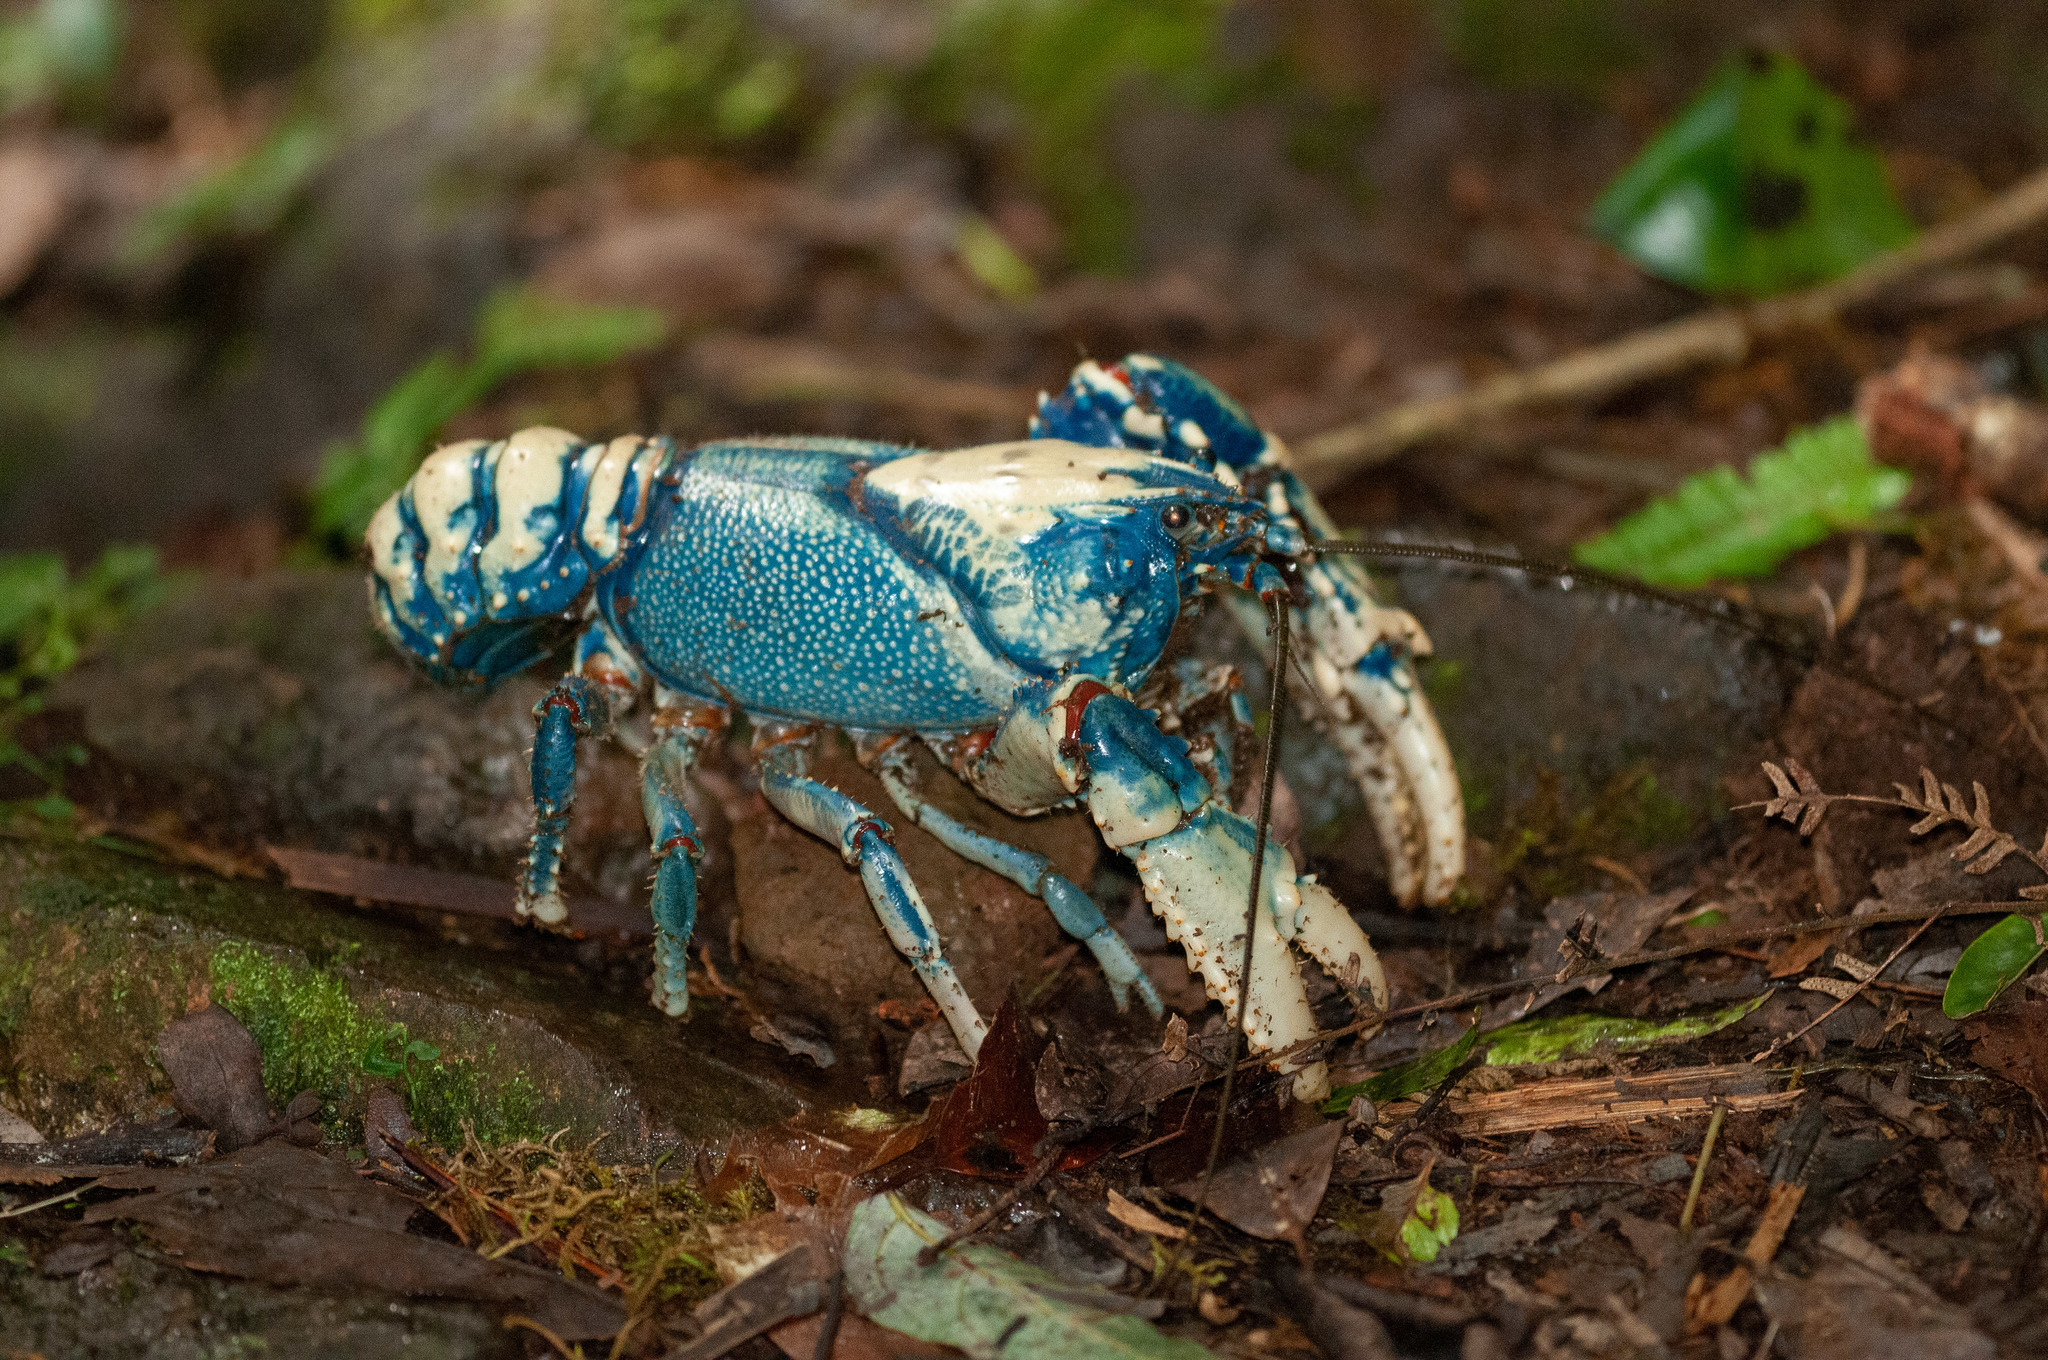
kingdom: Animalia
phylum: Arthropoda
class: Malacostraca
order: Decapoda
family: Parastacidae
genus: Euastacus
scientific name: Euastacus sulcatus
